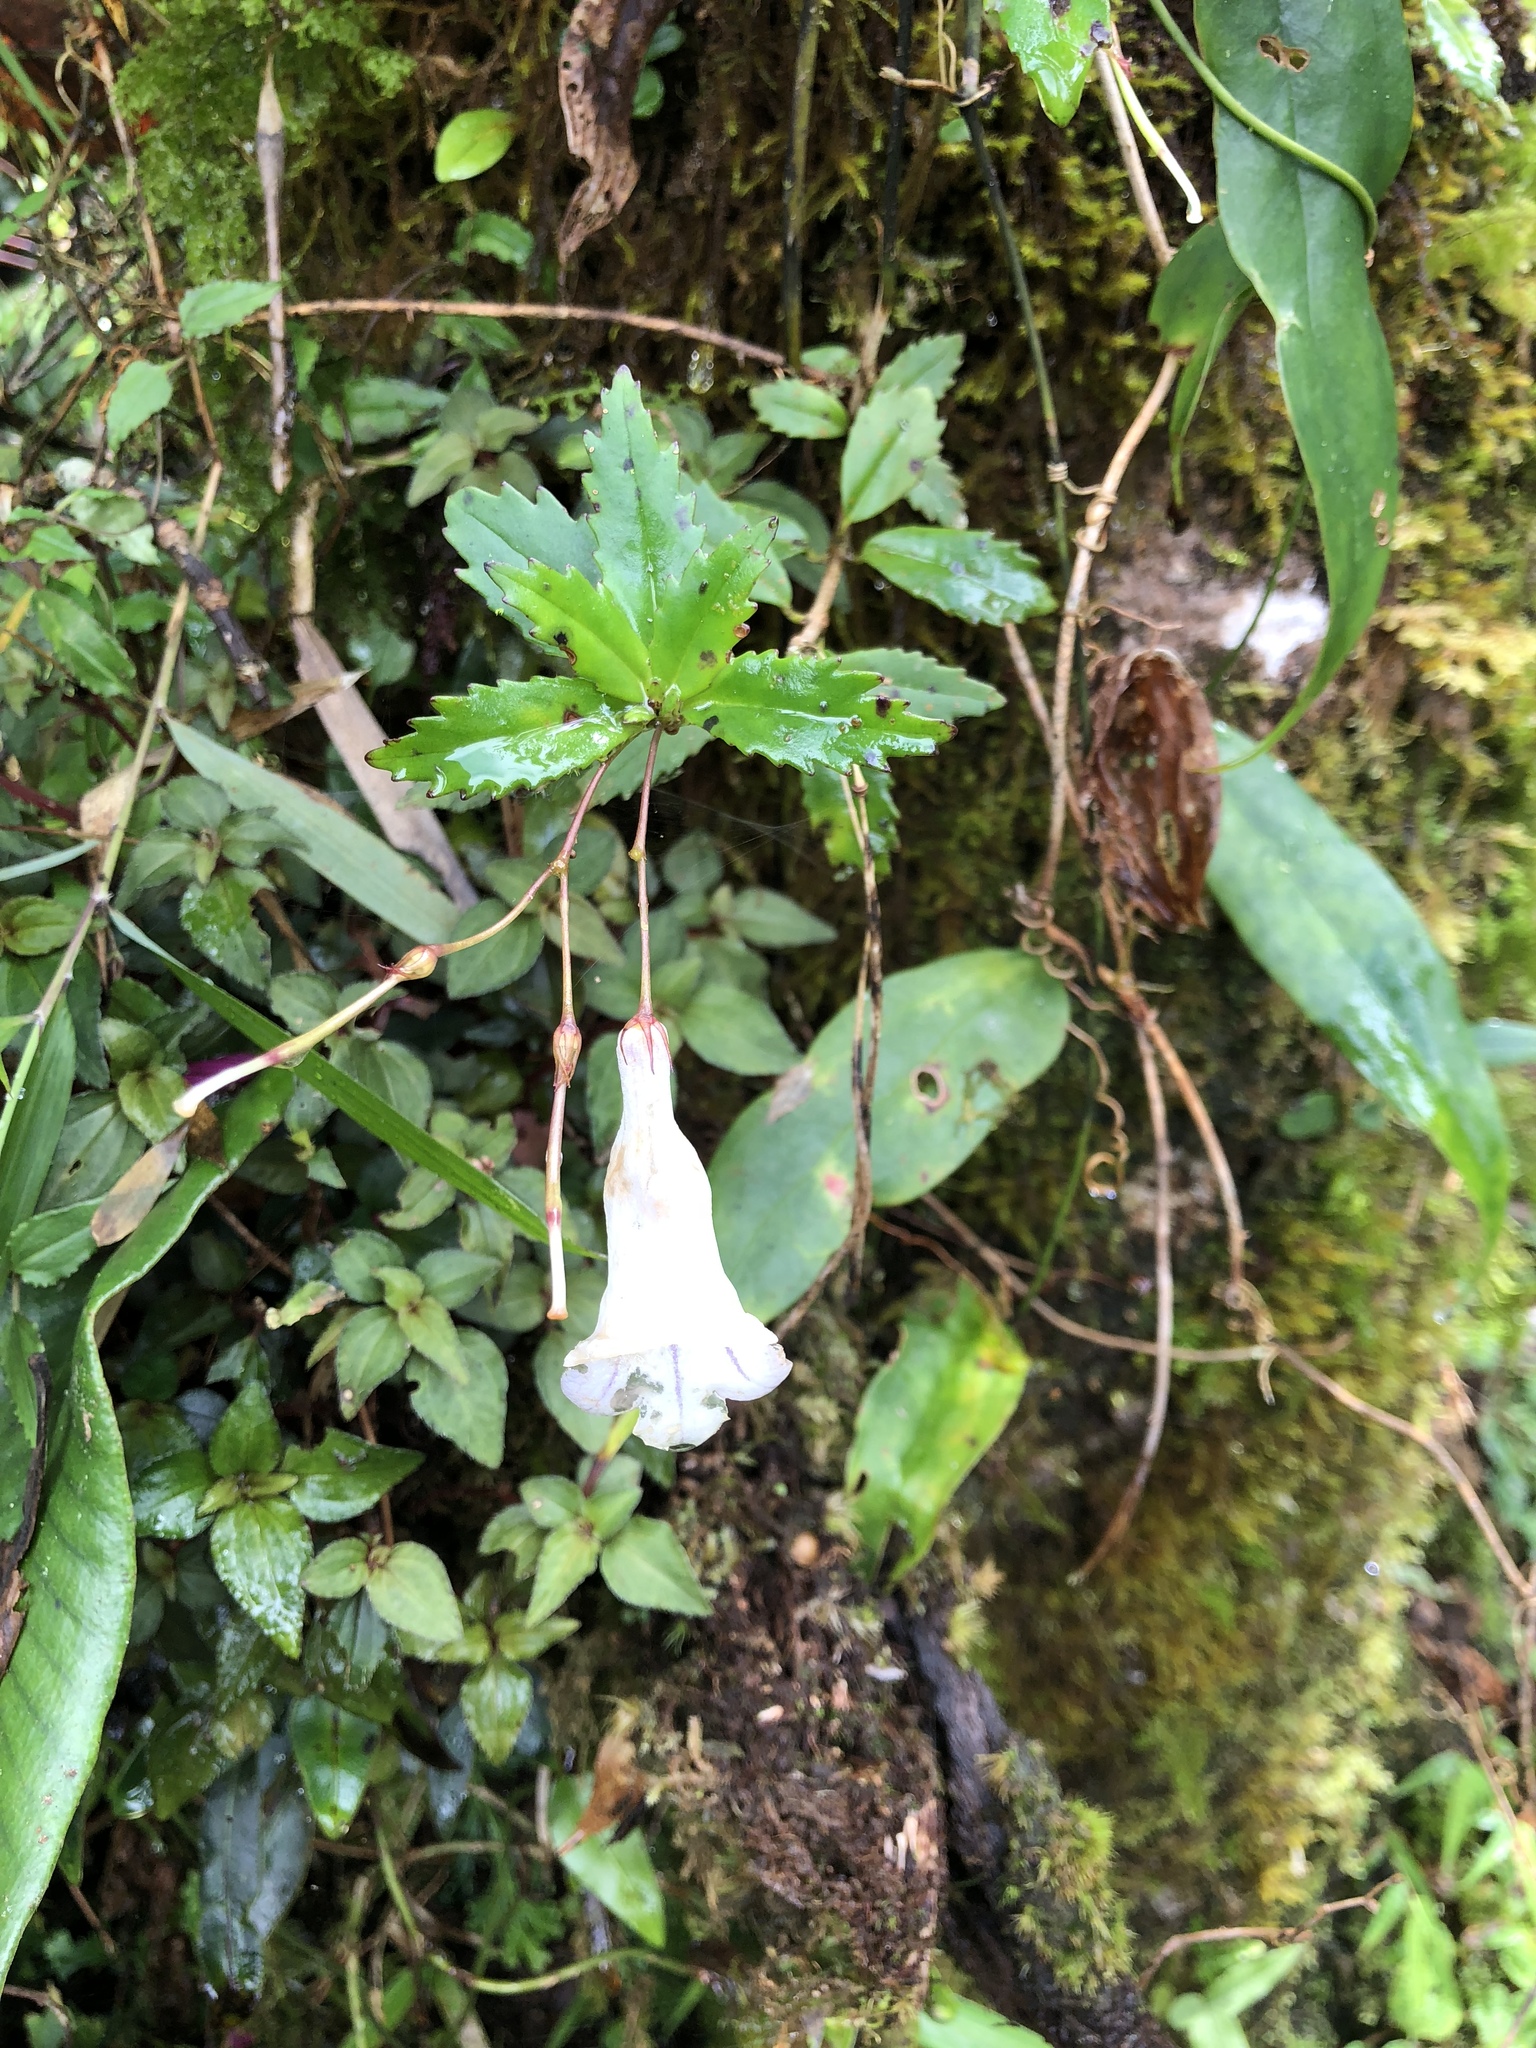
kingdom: Plantae
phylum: Tracheophyta
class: Magnoliopsida
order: Lamiales
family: Gesneriaceae
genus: Lysionotus
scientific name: Lysionotus pauciflorus
